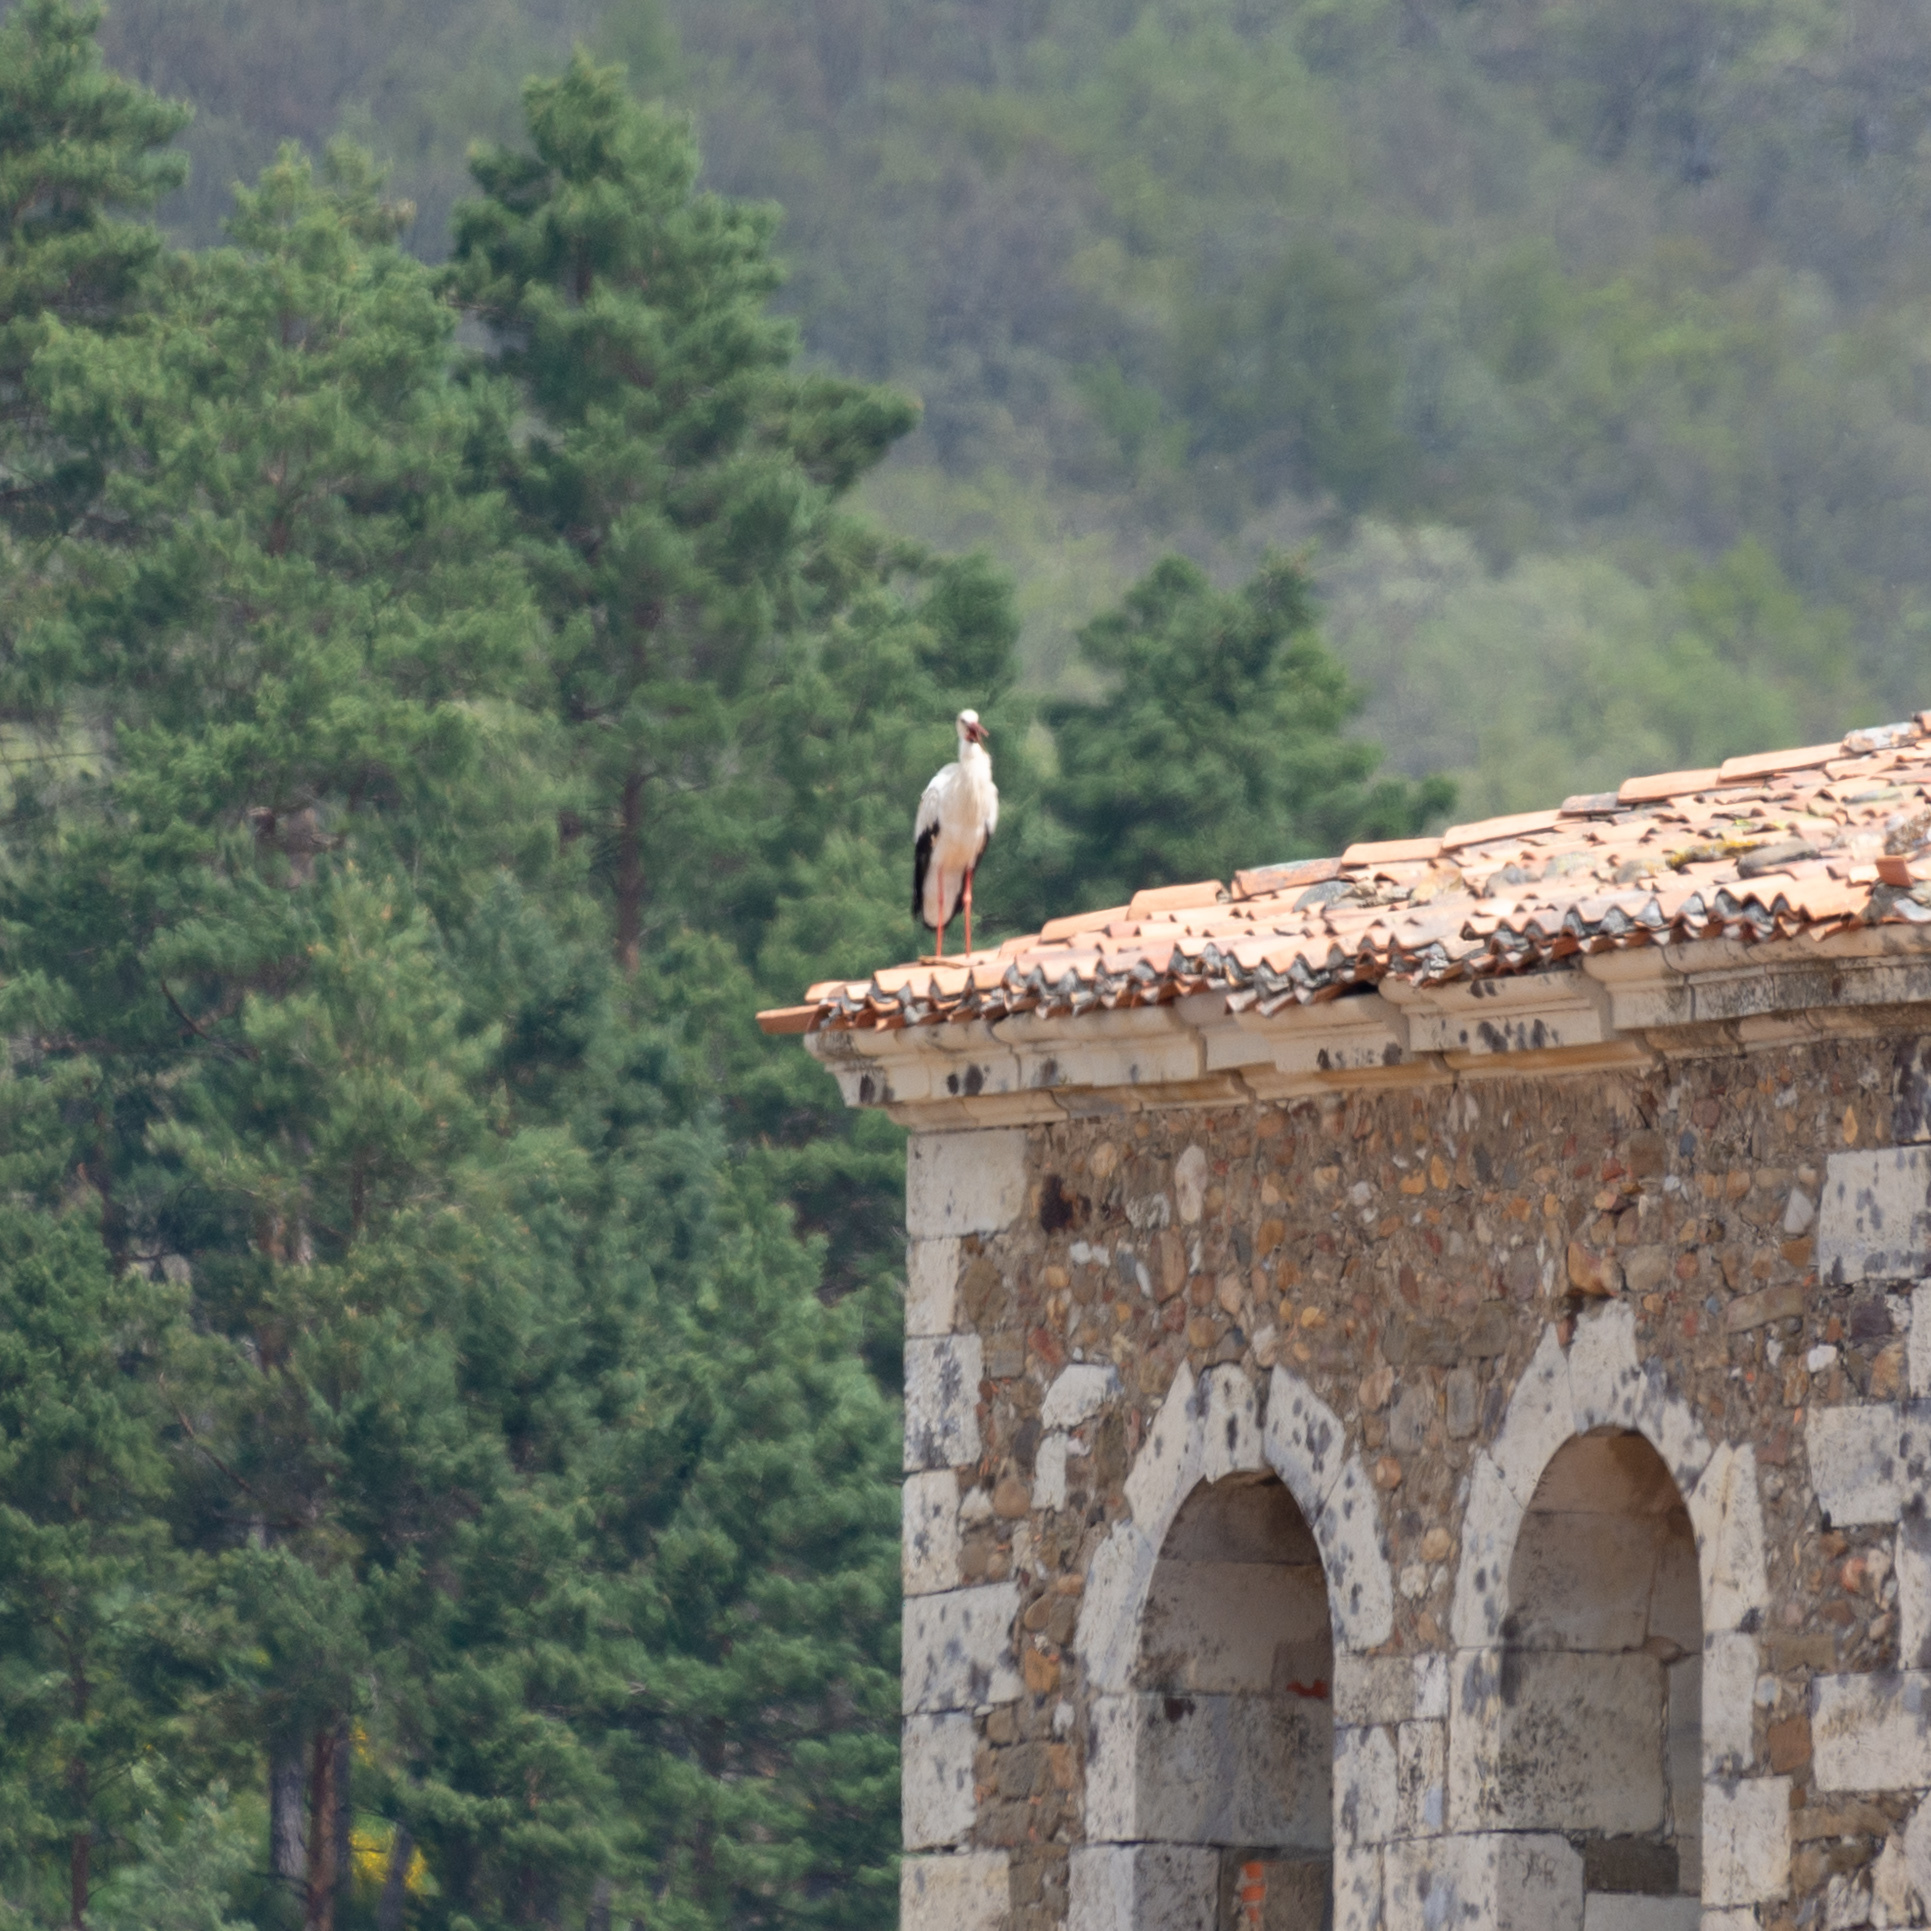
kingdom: Animalia
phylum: Chordata
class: Aves
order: Ciconiiformes
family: Ciconiidae
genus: Ciconia
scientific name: Ciconia ciconia
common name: White stork
